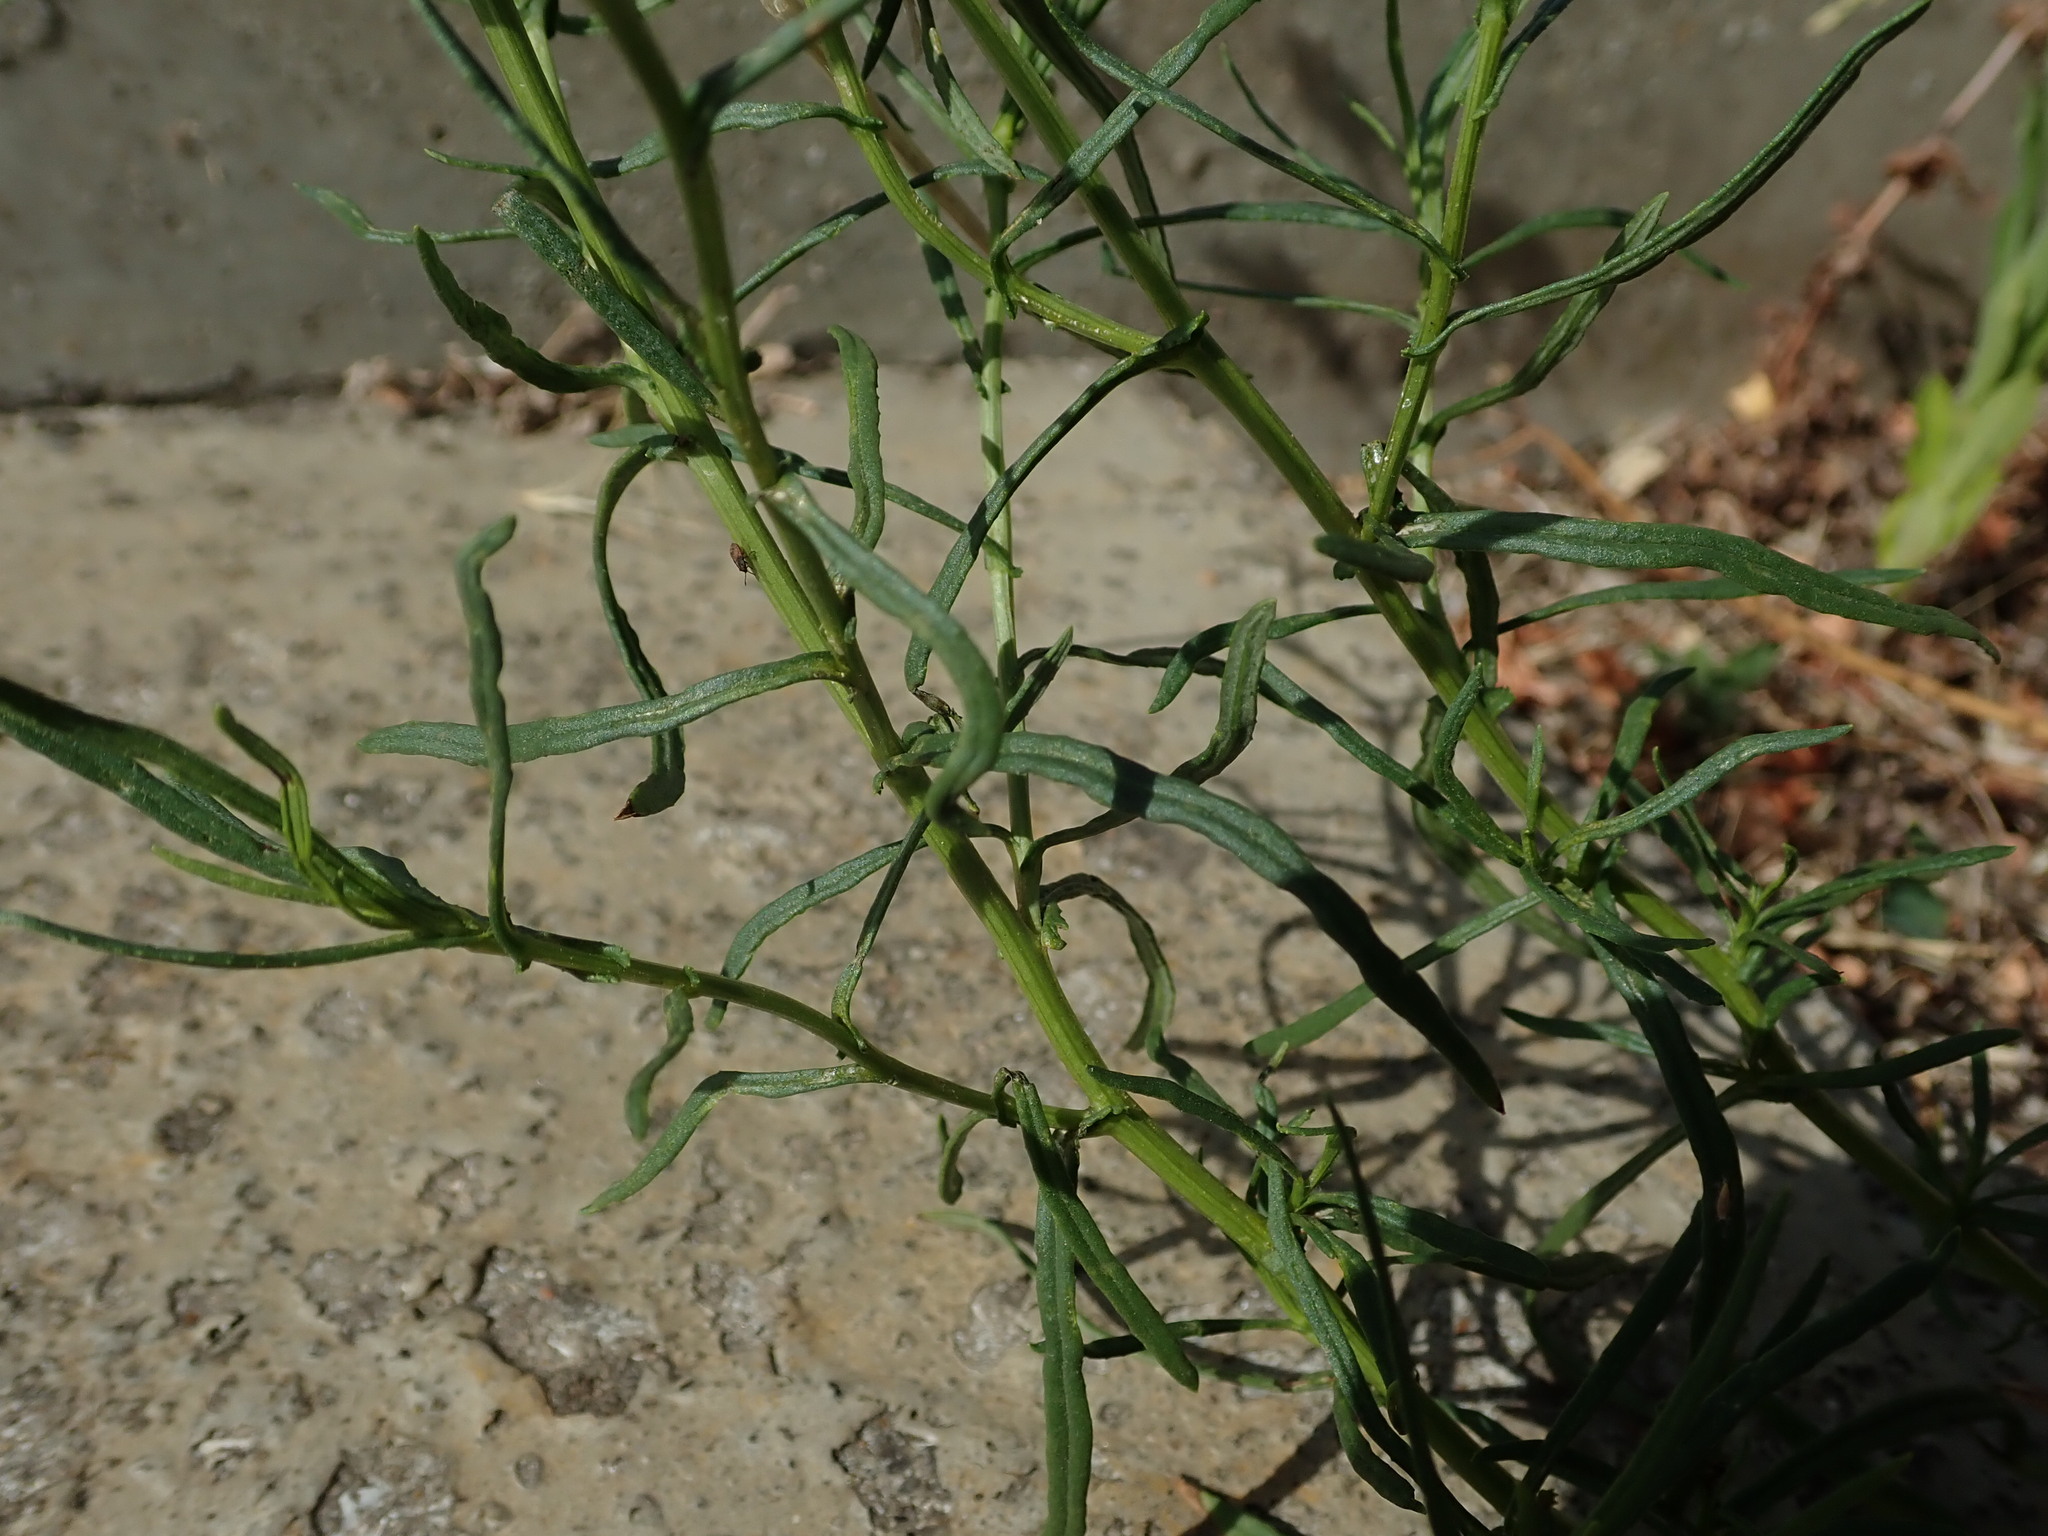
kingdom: Plantae
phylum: Tracheophyta
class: Magnoliopsida
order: Asterales
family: Asteraceae
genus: Senecio
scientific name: Senecio inaequidens
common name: Narrow-leaved ragwort
